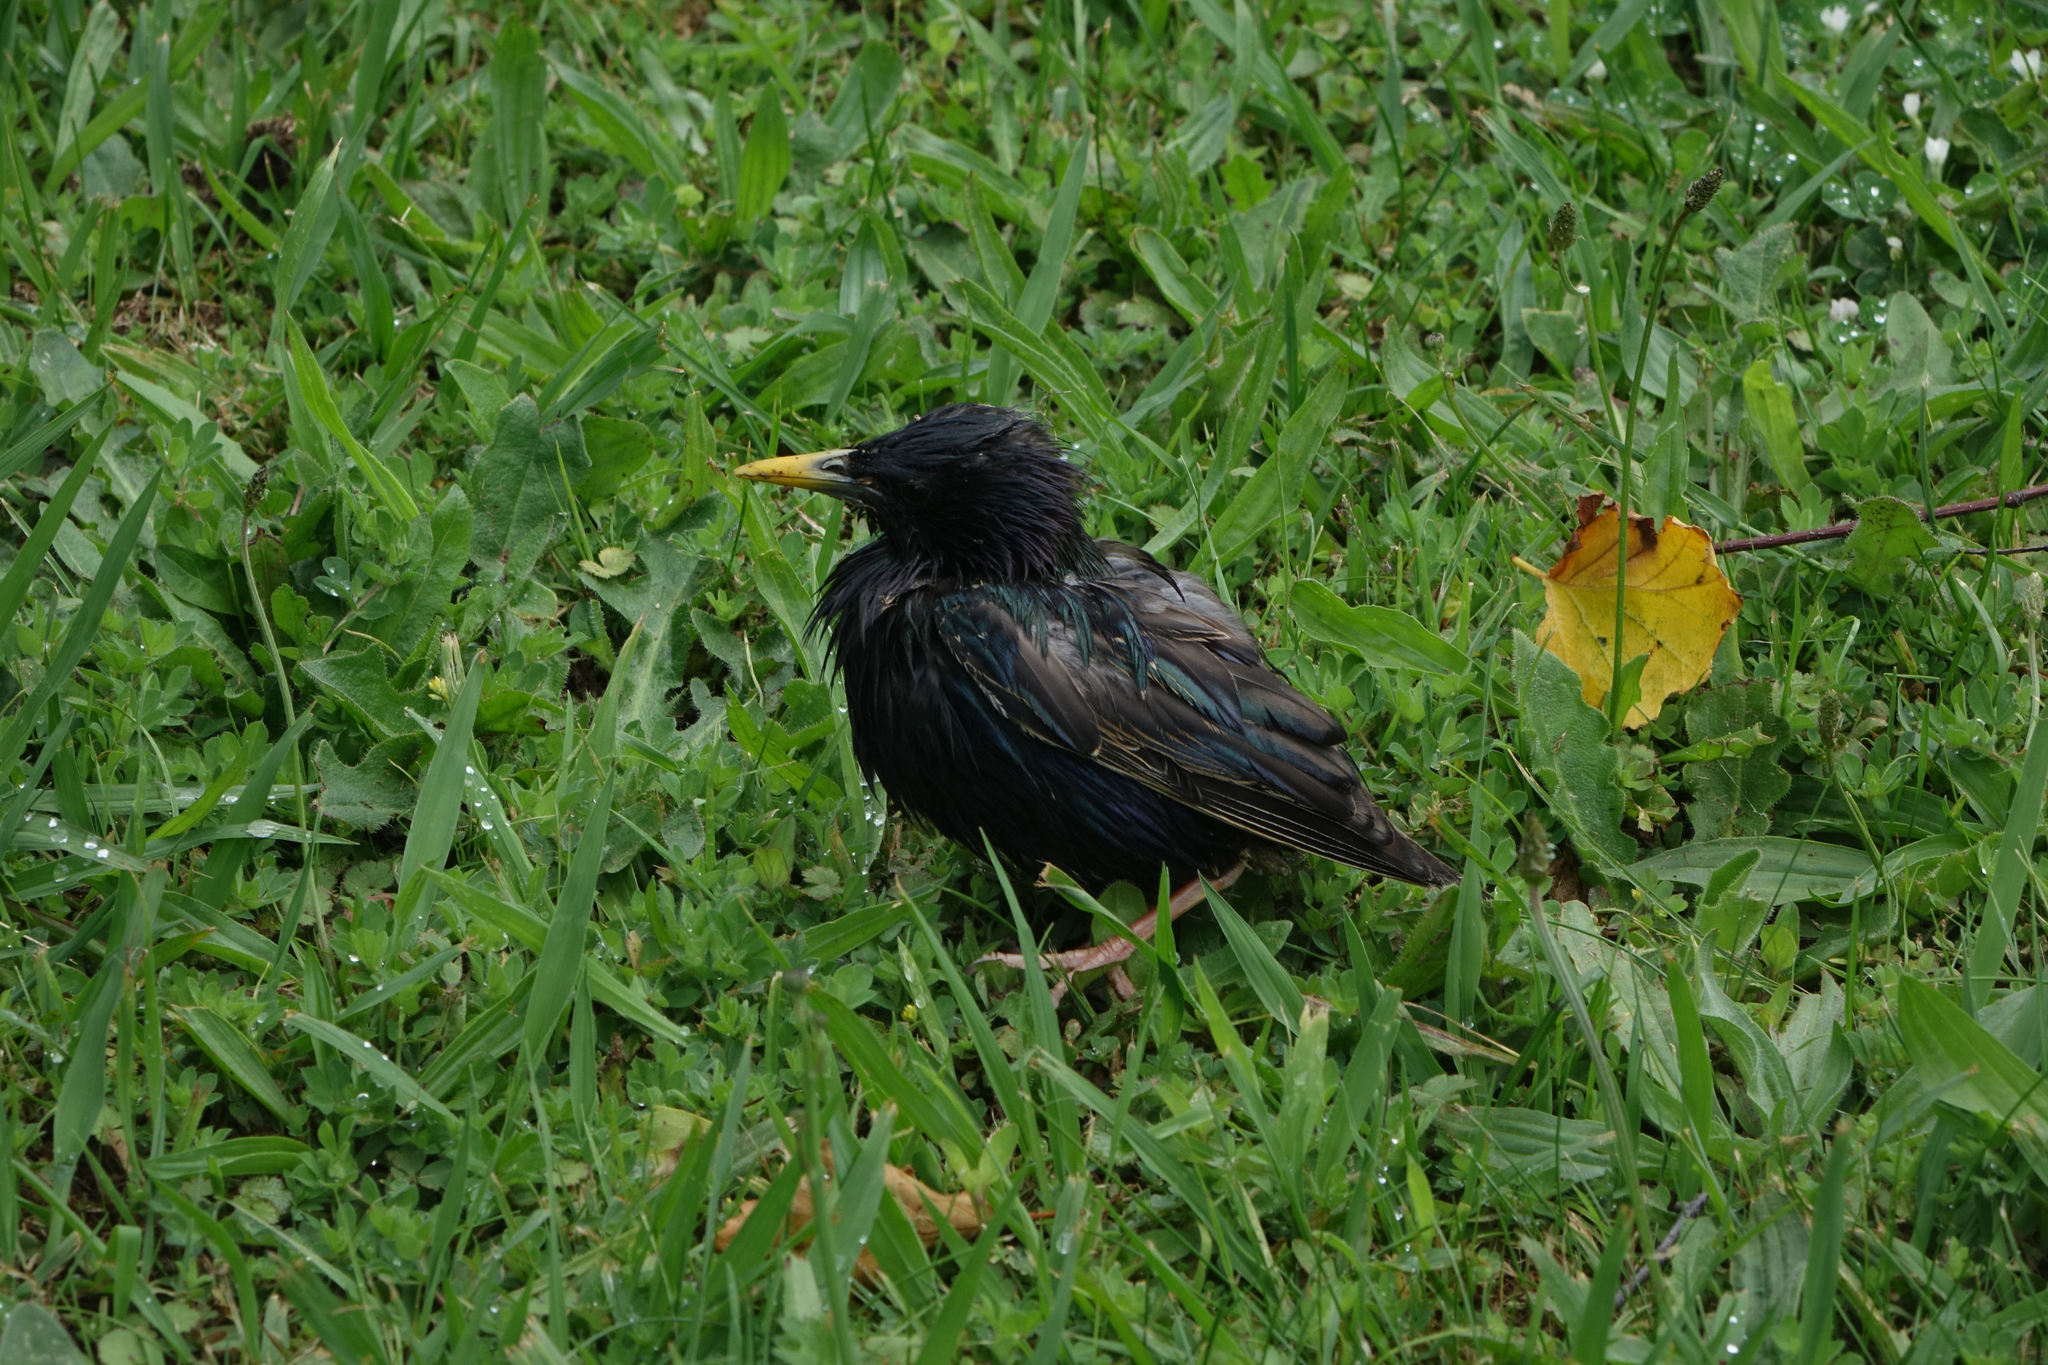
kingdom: Animalia
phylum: Chordata
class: Aves
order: Passeriformes
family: Sturnidae
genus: Sturnus
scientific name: Sturnus vulgaris
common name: Common starling
